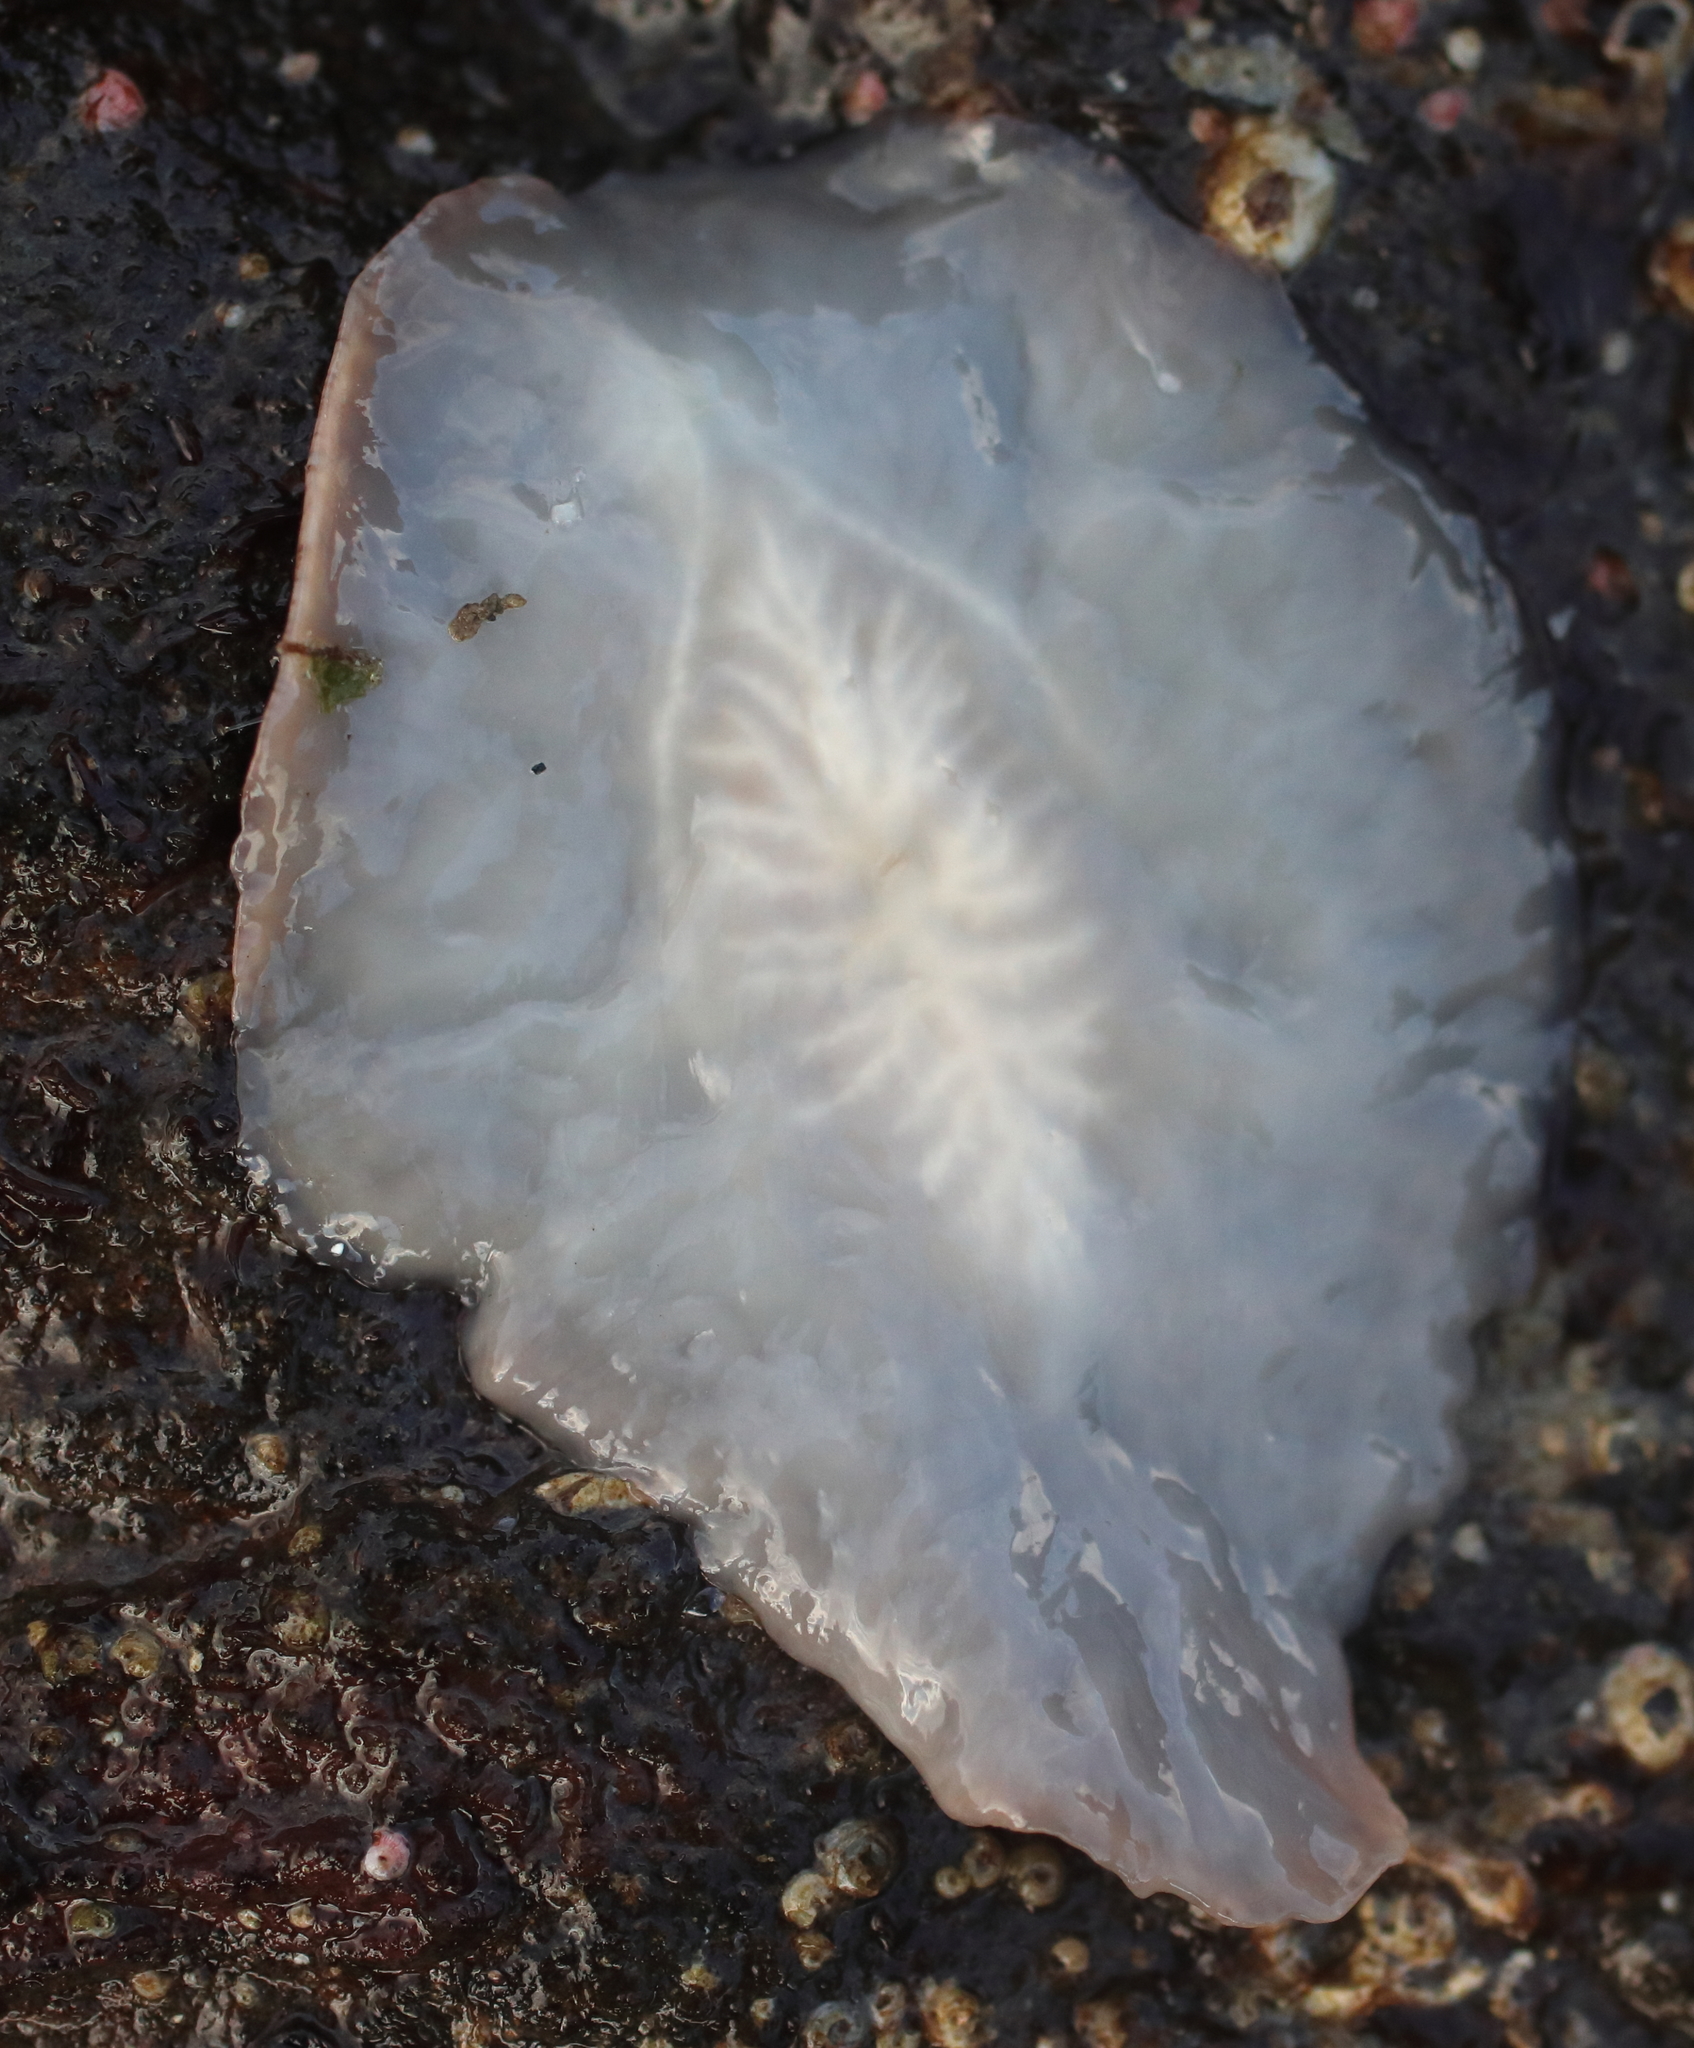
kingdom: Animalia
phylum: Platyhelminthes
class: Turbellaria
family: Callioplanidae
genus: Kaburakia
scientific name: Kaburakia excelsa
